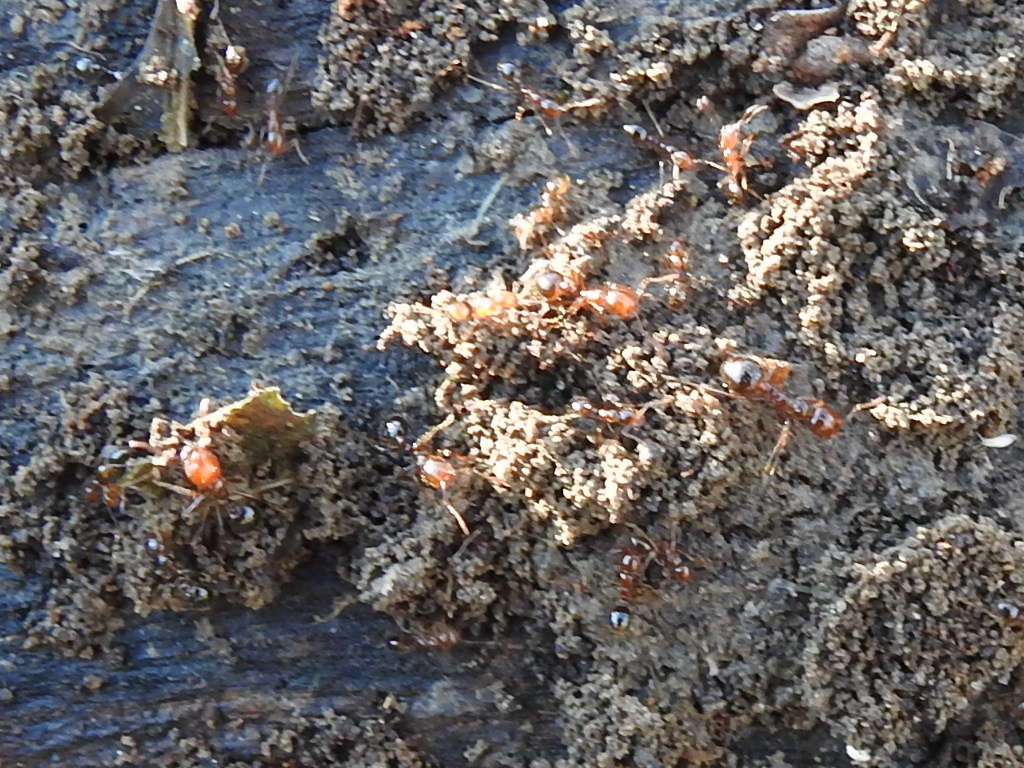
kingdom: Animalia
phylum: Arthropoda
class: Insecta
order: Hymenoptera
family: Formicidae
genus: Solenopsis
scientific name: Solenopsis invicta
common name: Red imported fire ant
